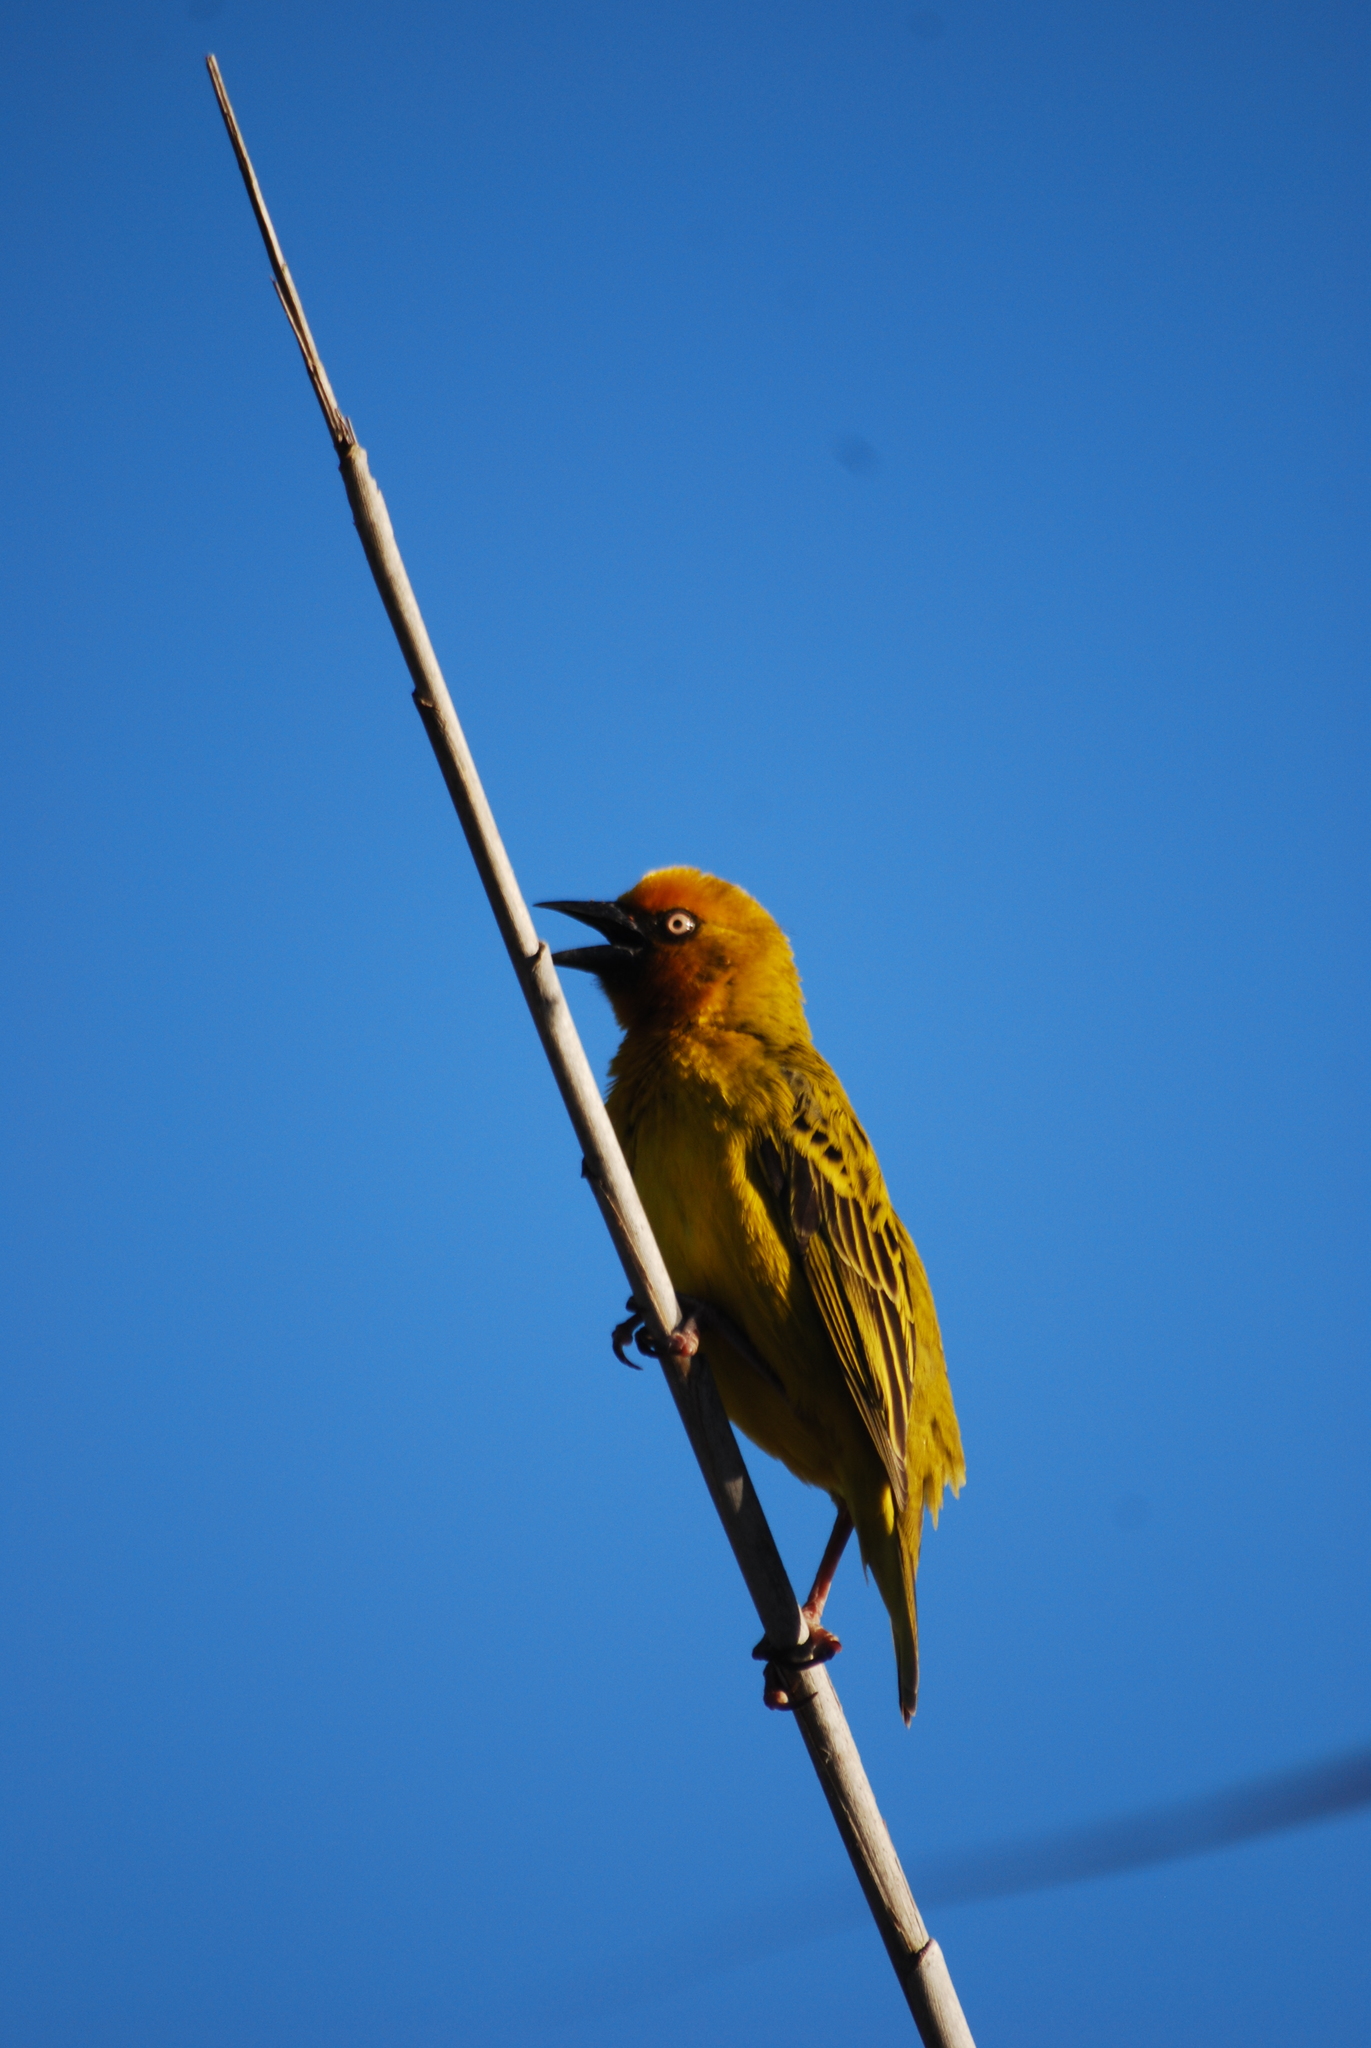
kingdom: Animalia
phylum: Chordata
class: Aves
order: Passeriformes
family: Ploceidae
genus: Ploceus
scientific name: Ploceus capensis
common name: Cape weaver
